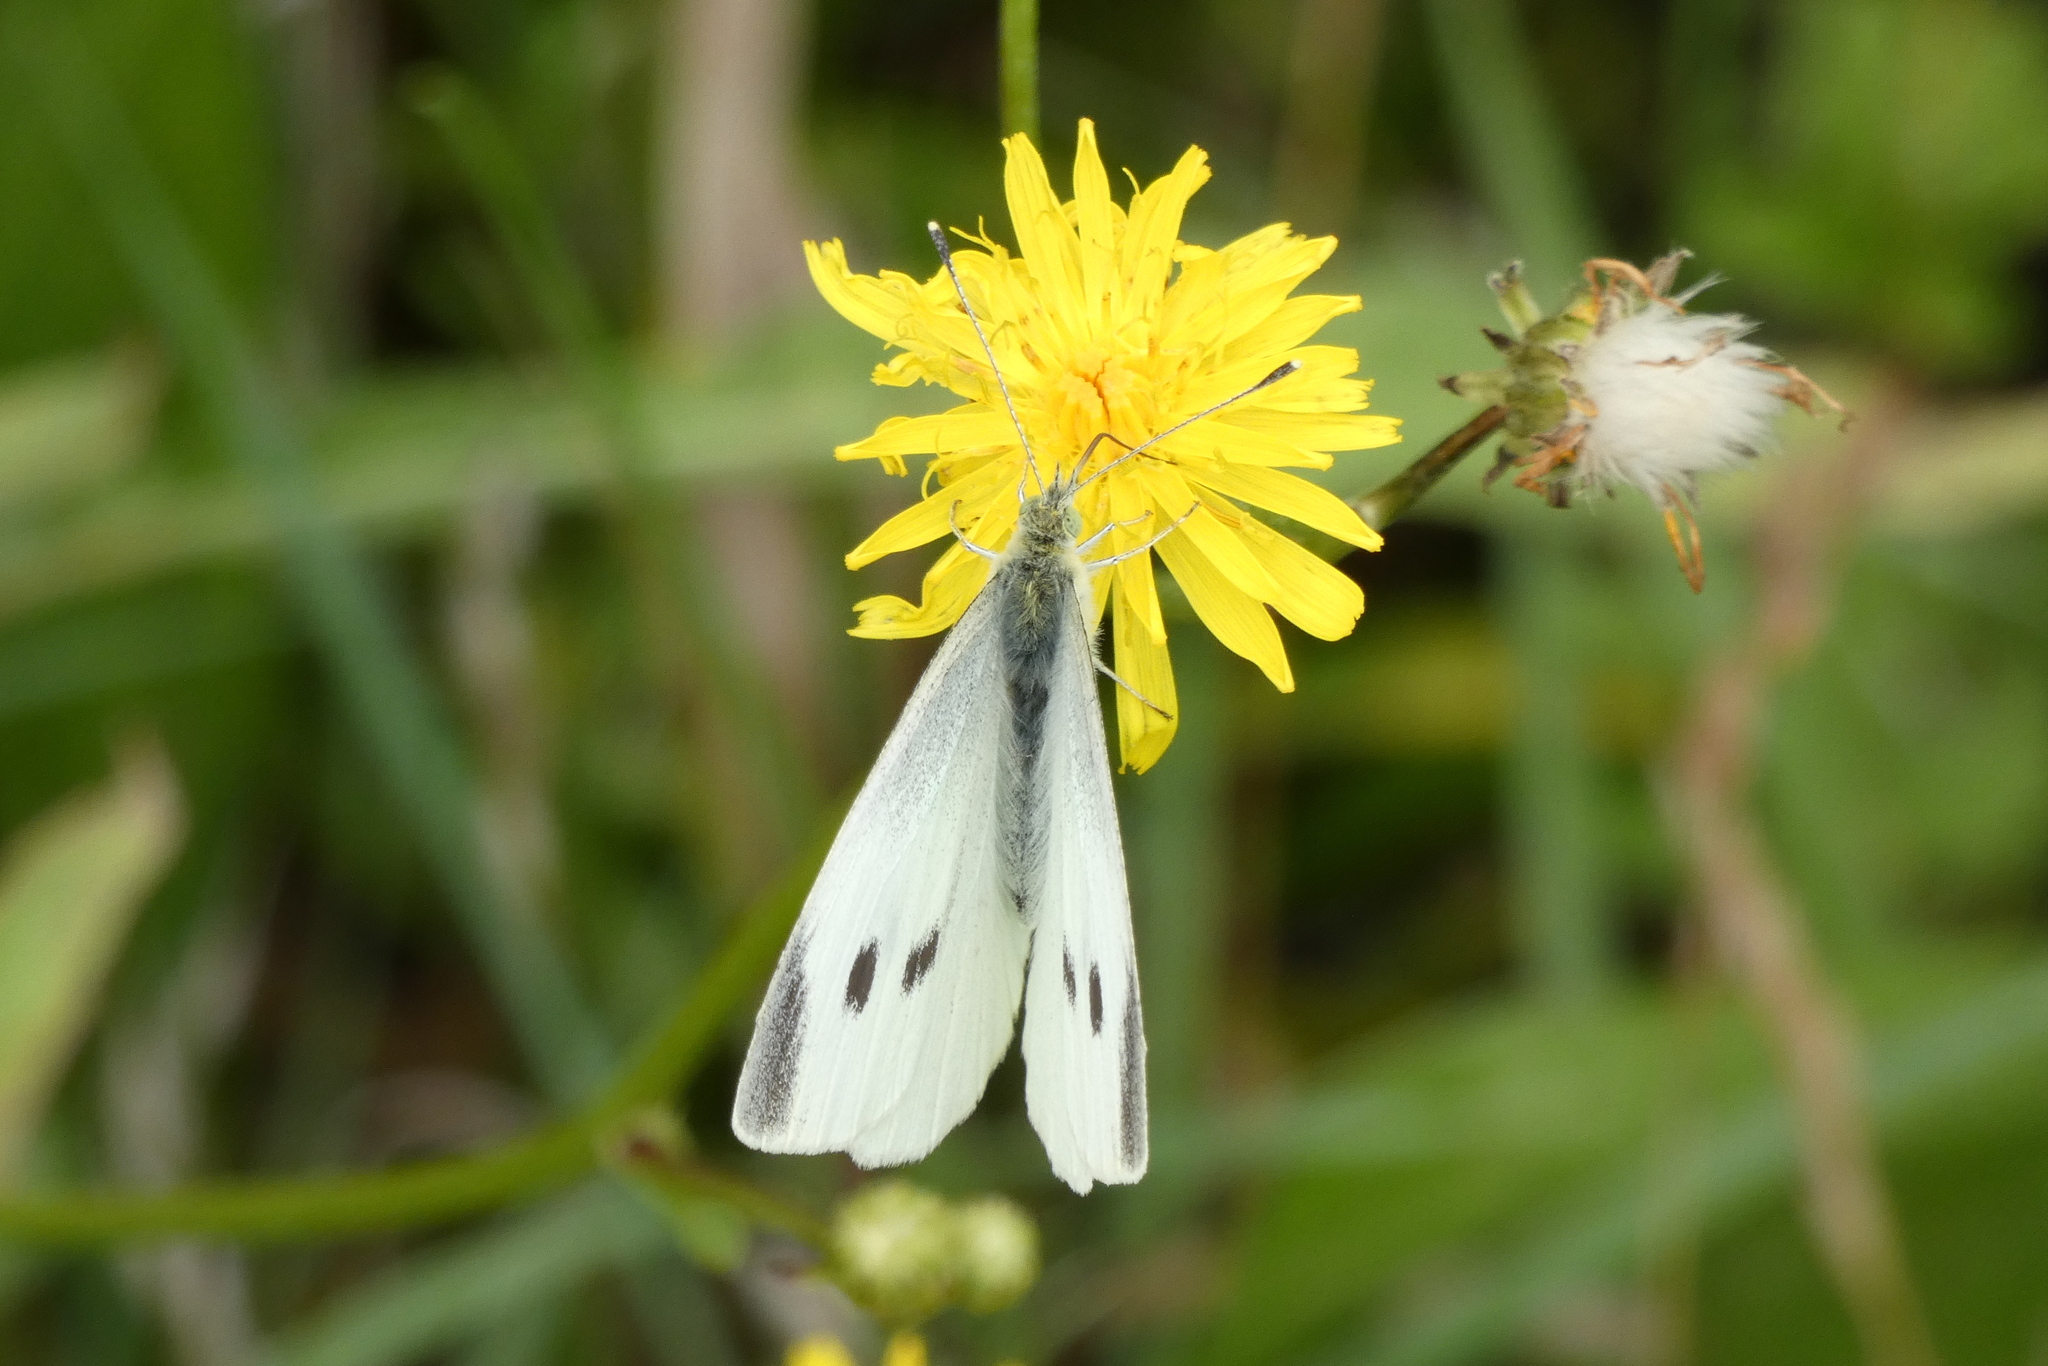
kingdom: Animalia
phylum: Arthropoda
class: Insecta
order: Lepidoptera
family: Pieridae
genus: Pieris
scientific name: Pieris rapae
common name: Small white
